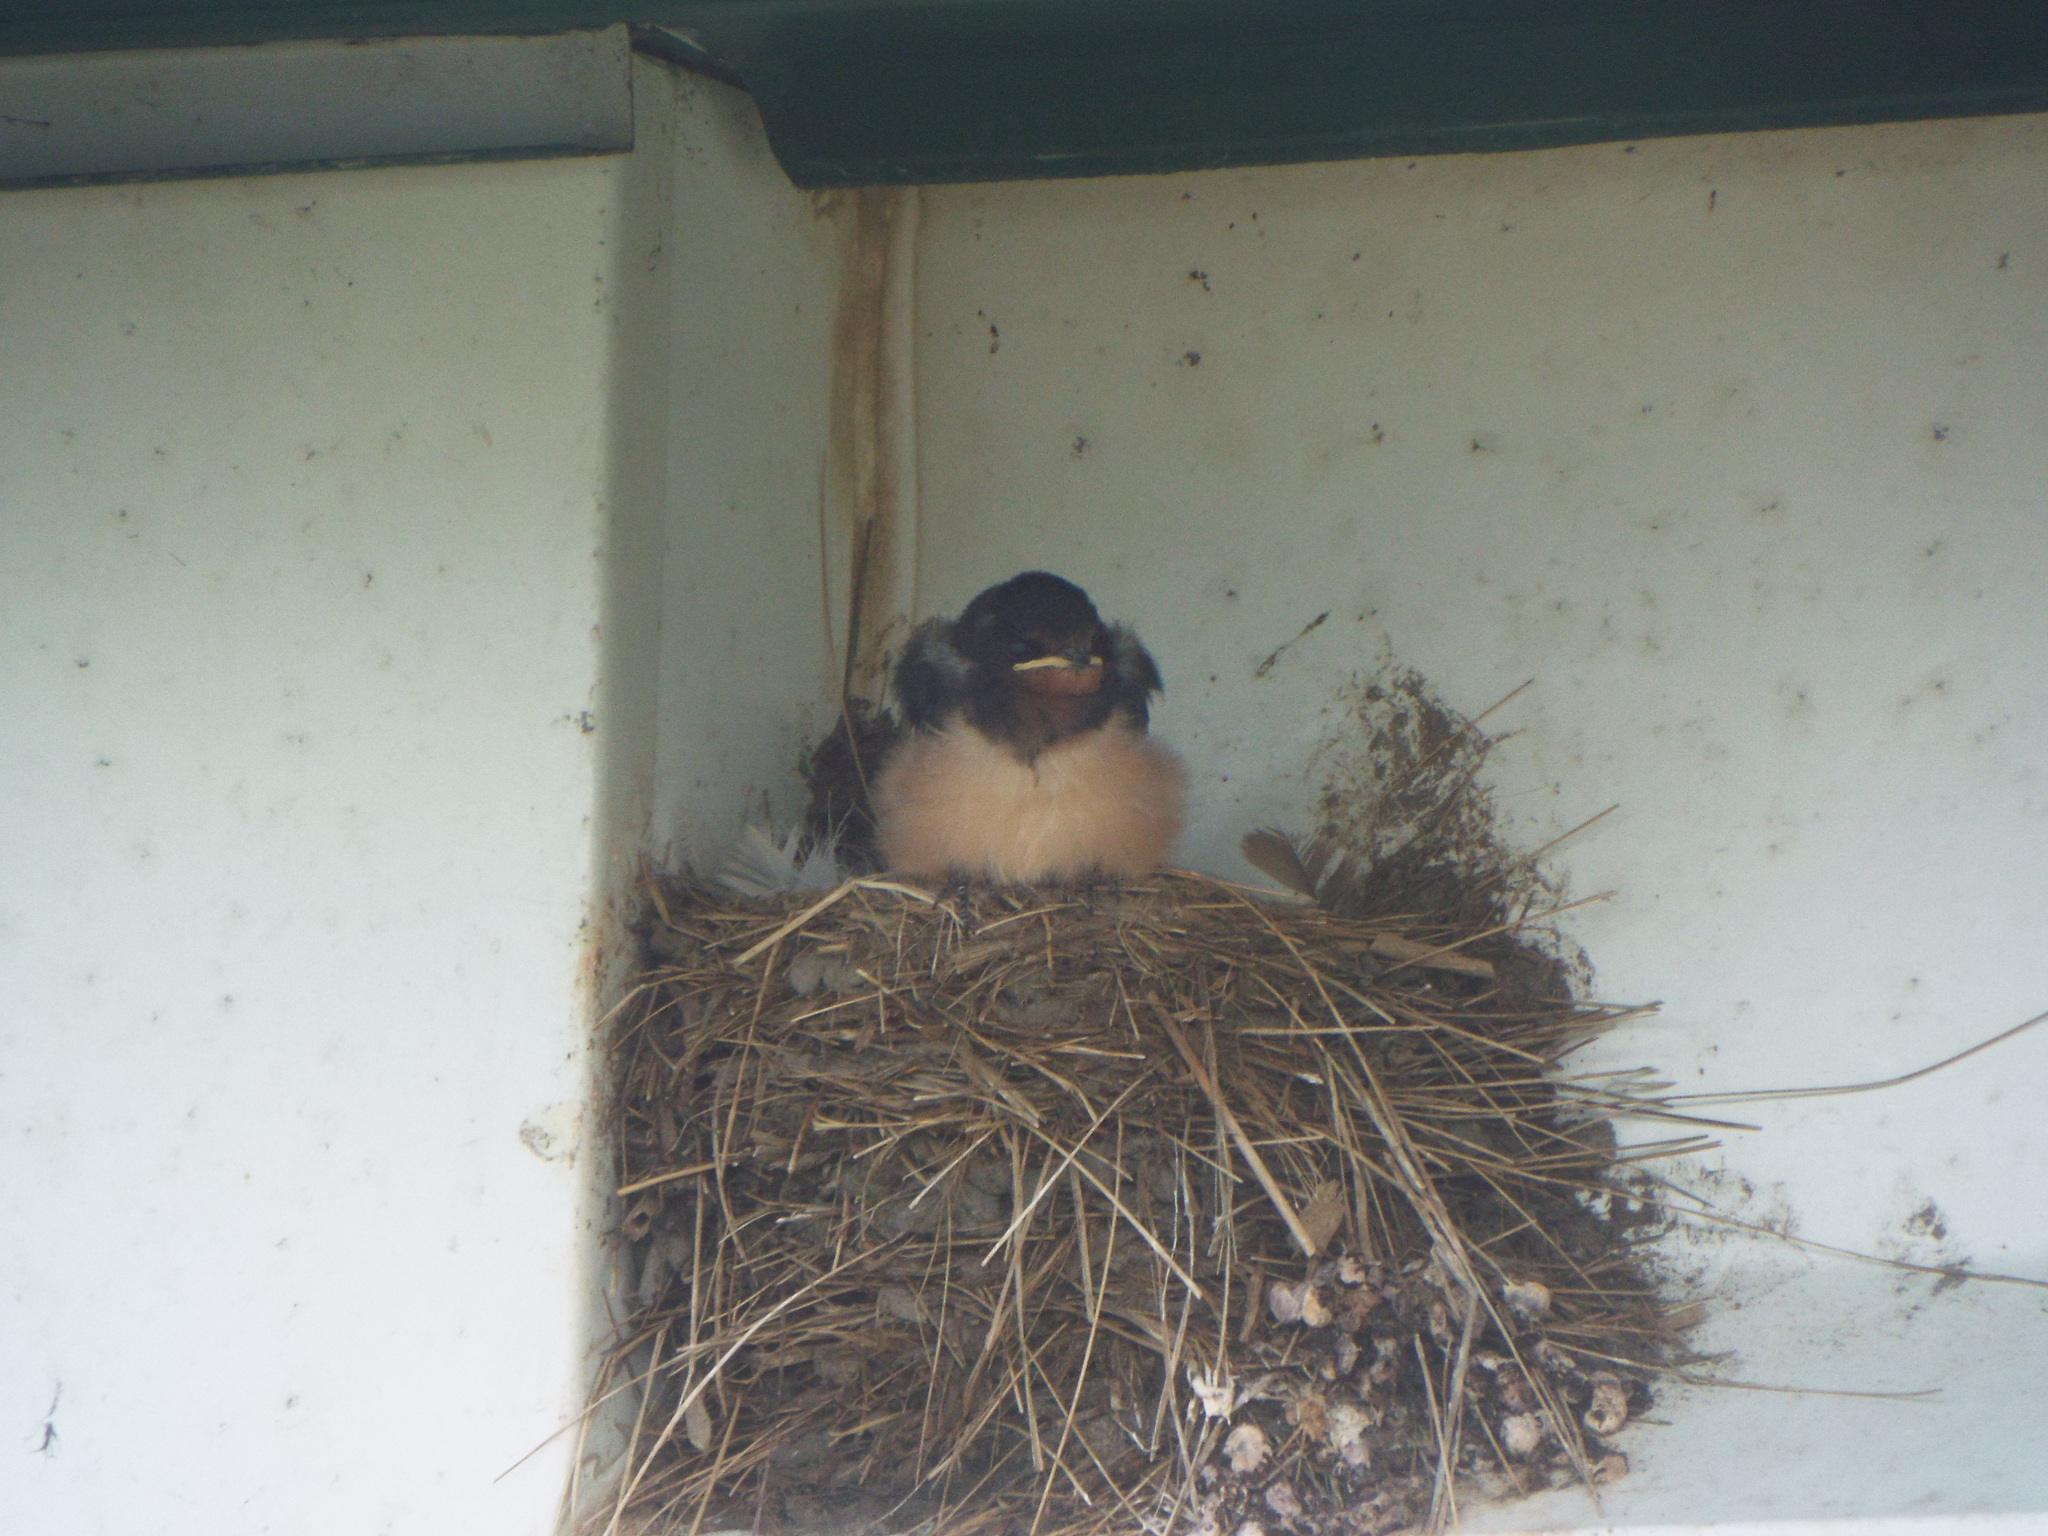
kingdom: Animalia
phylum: Chordata
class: Aves
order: Passeriformes
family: Hirundinidae
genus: Hirundo
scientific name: Hirundo rustica
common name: Barn swallow
